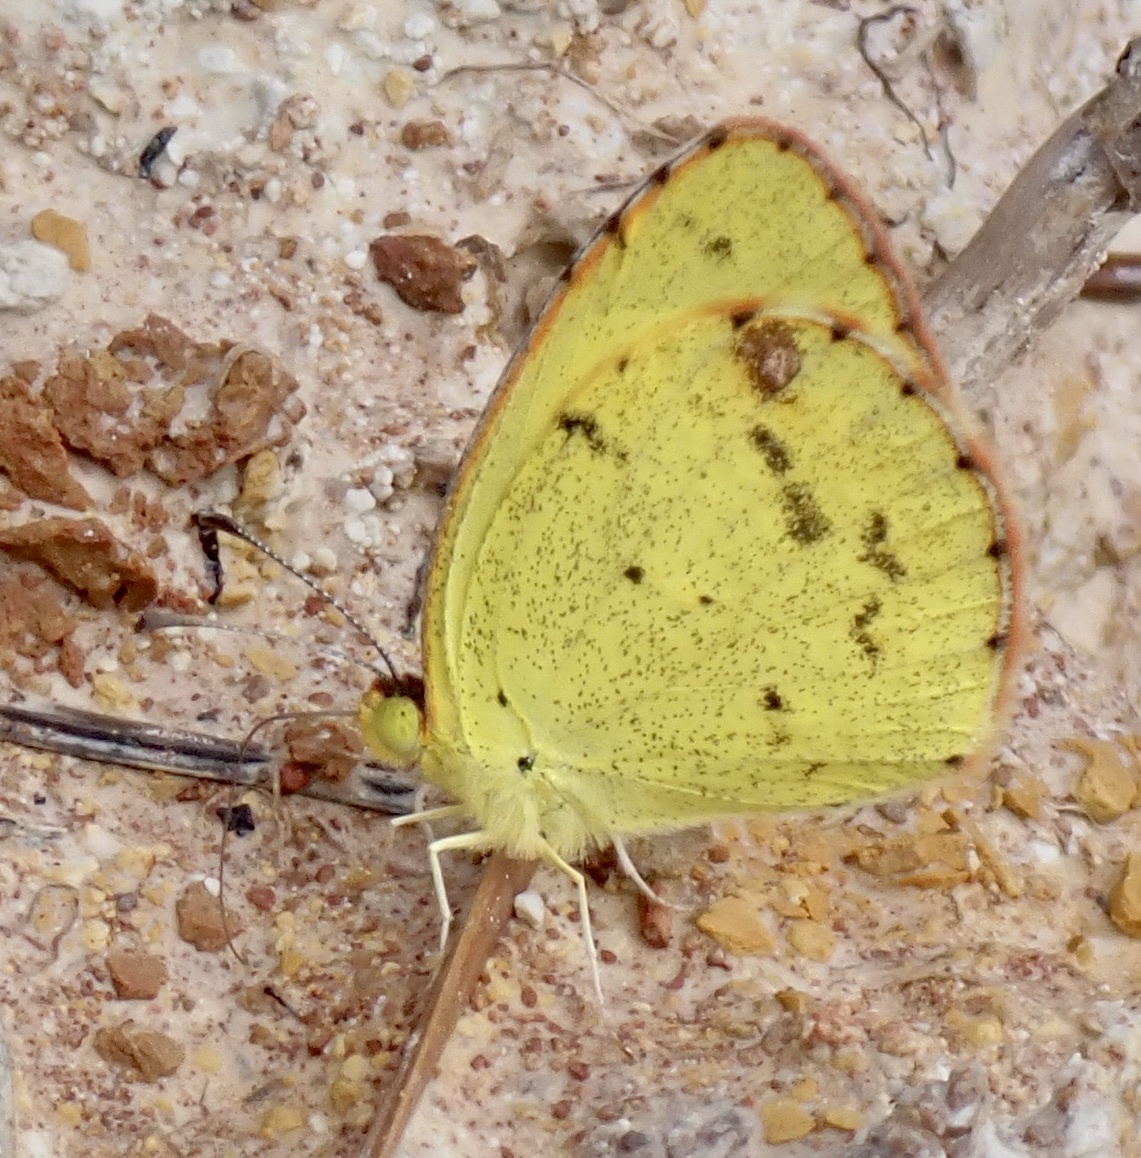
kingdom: Animalia
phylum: Arthropoda
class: Insecta
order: Lepidoptera
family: Pieridae
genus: Pyrisitia
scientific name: Pyrisitia lisa
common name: Little yellow
